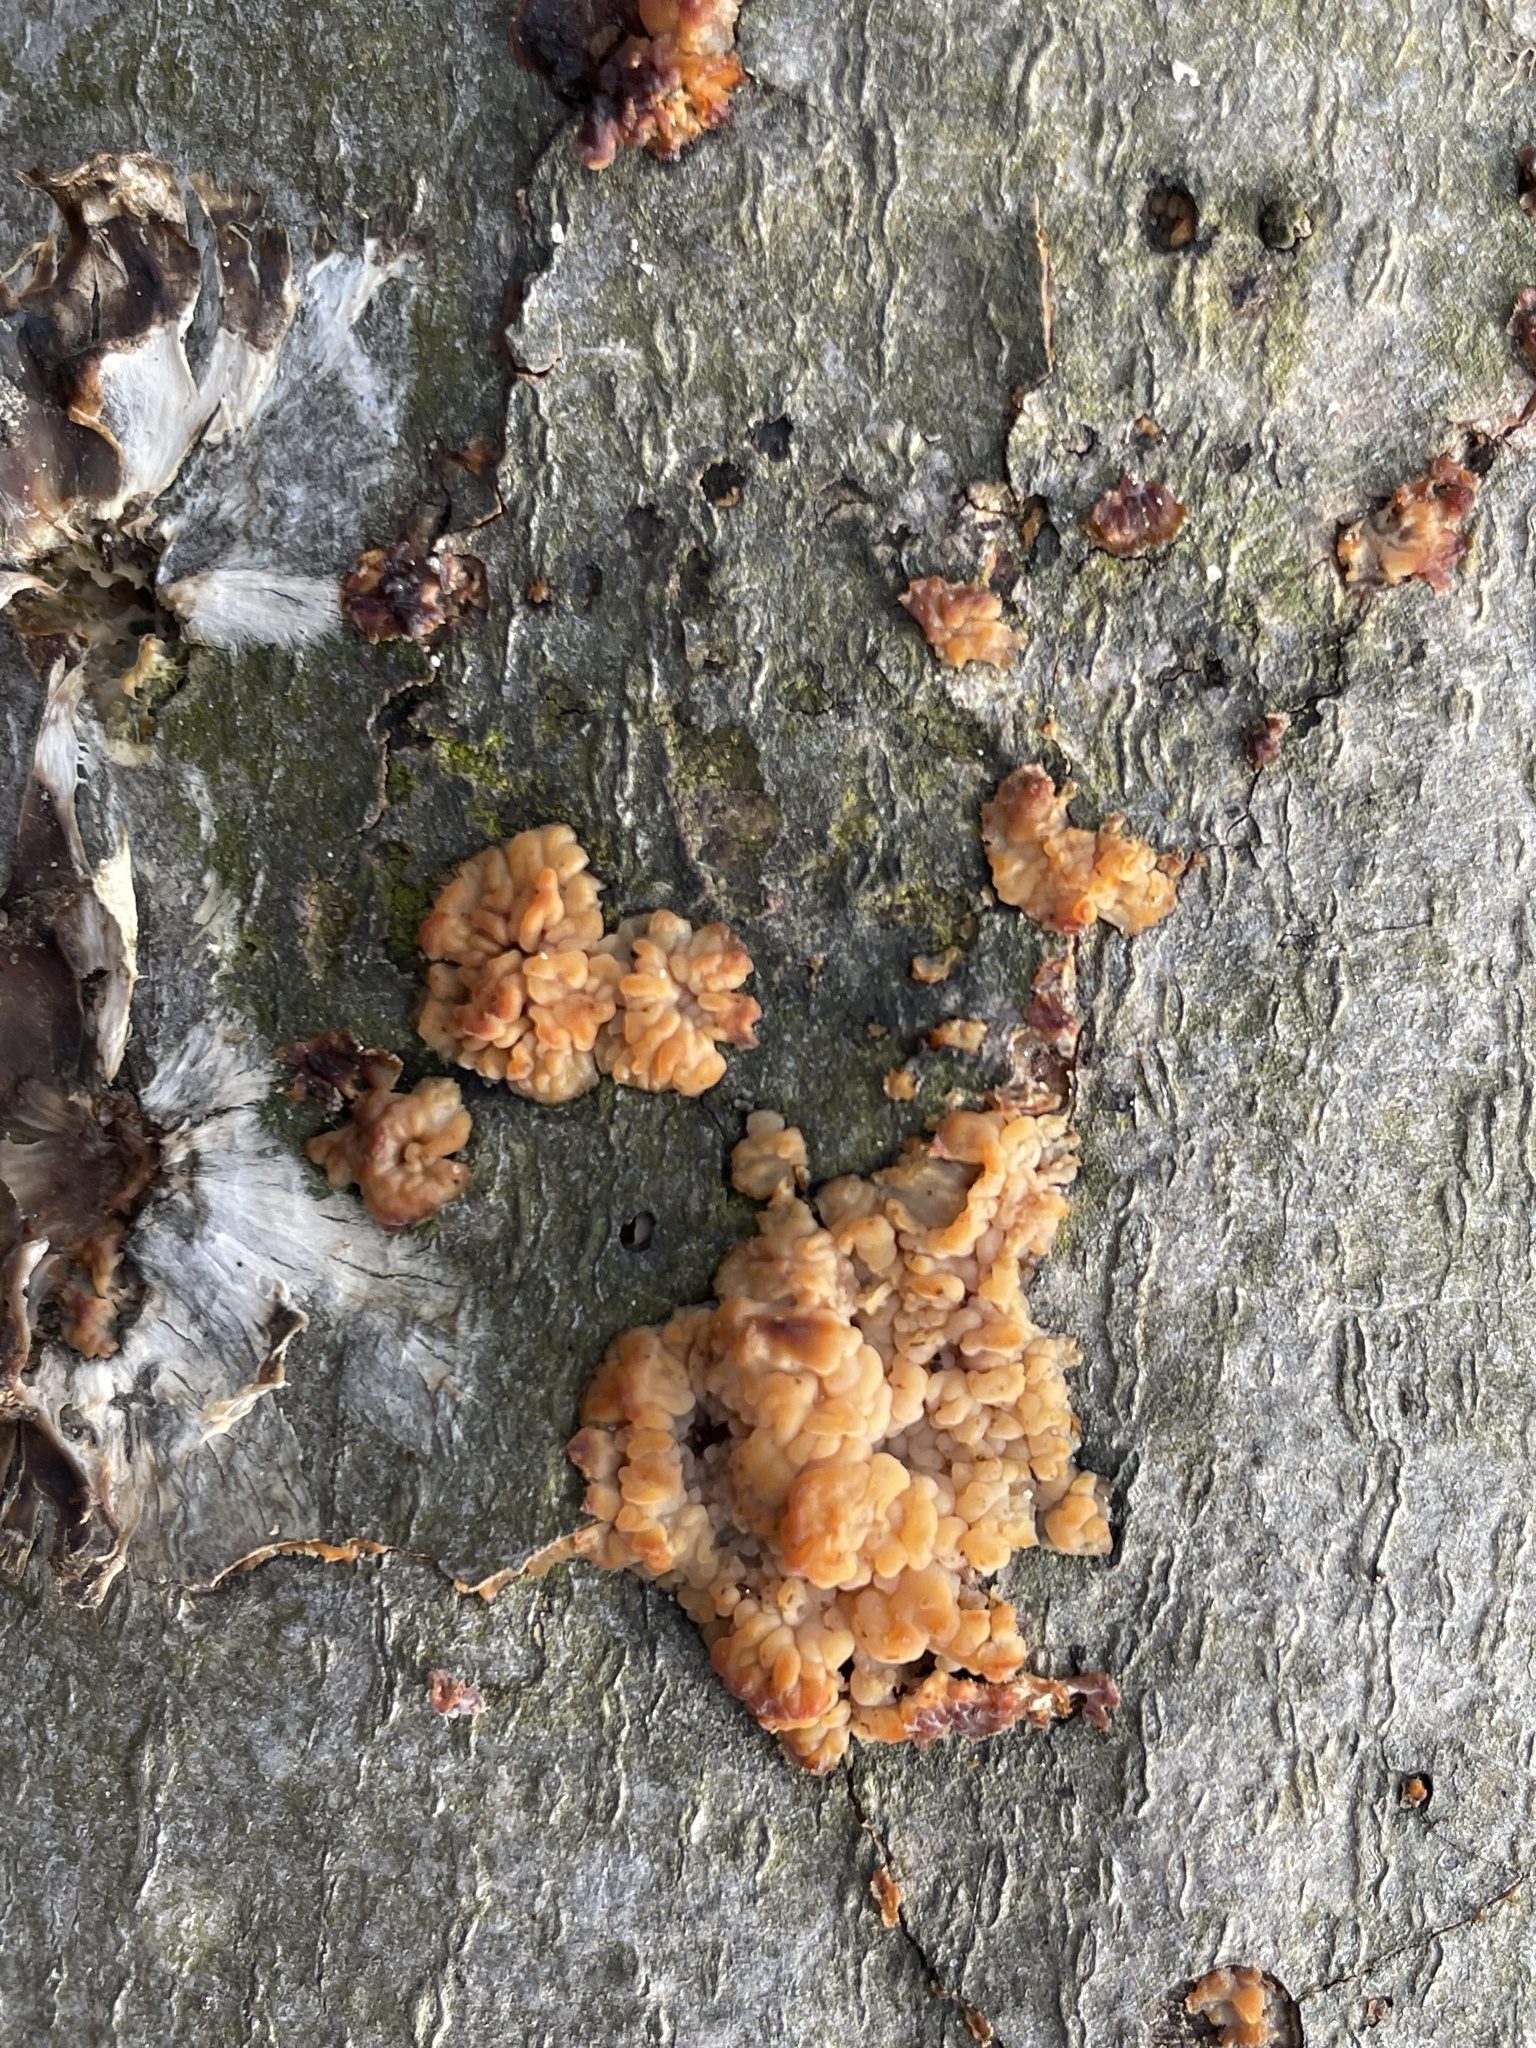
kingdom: Fungi
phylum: Basidiomycota
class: Agaricomycetes
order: Polyporales
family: Meruliaceae
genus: Phlebia
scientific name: Phlebia radiata
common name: Wrinkled crust
